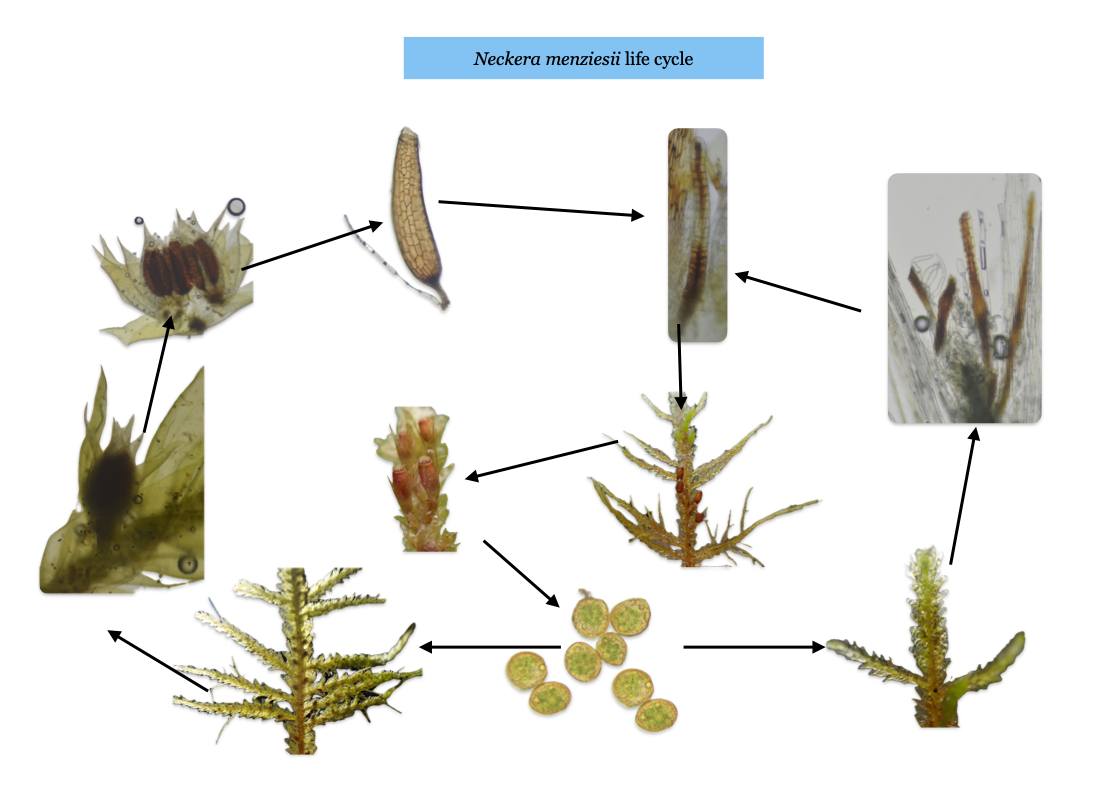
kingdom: Plantae
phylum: Bryophyta
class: Bryopsida
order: Hypnales
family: Neckeraceae
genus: Metaneckera
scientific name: Metaneckera menziesii
